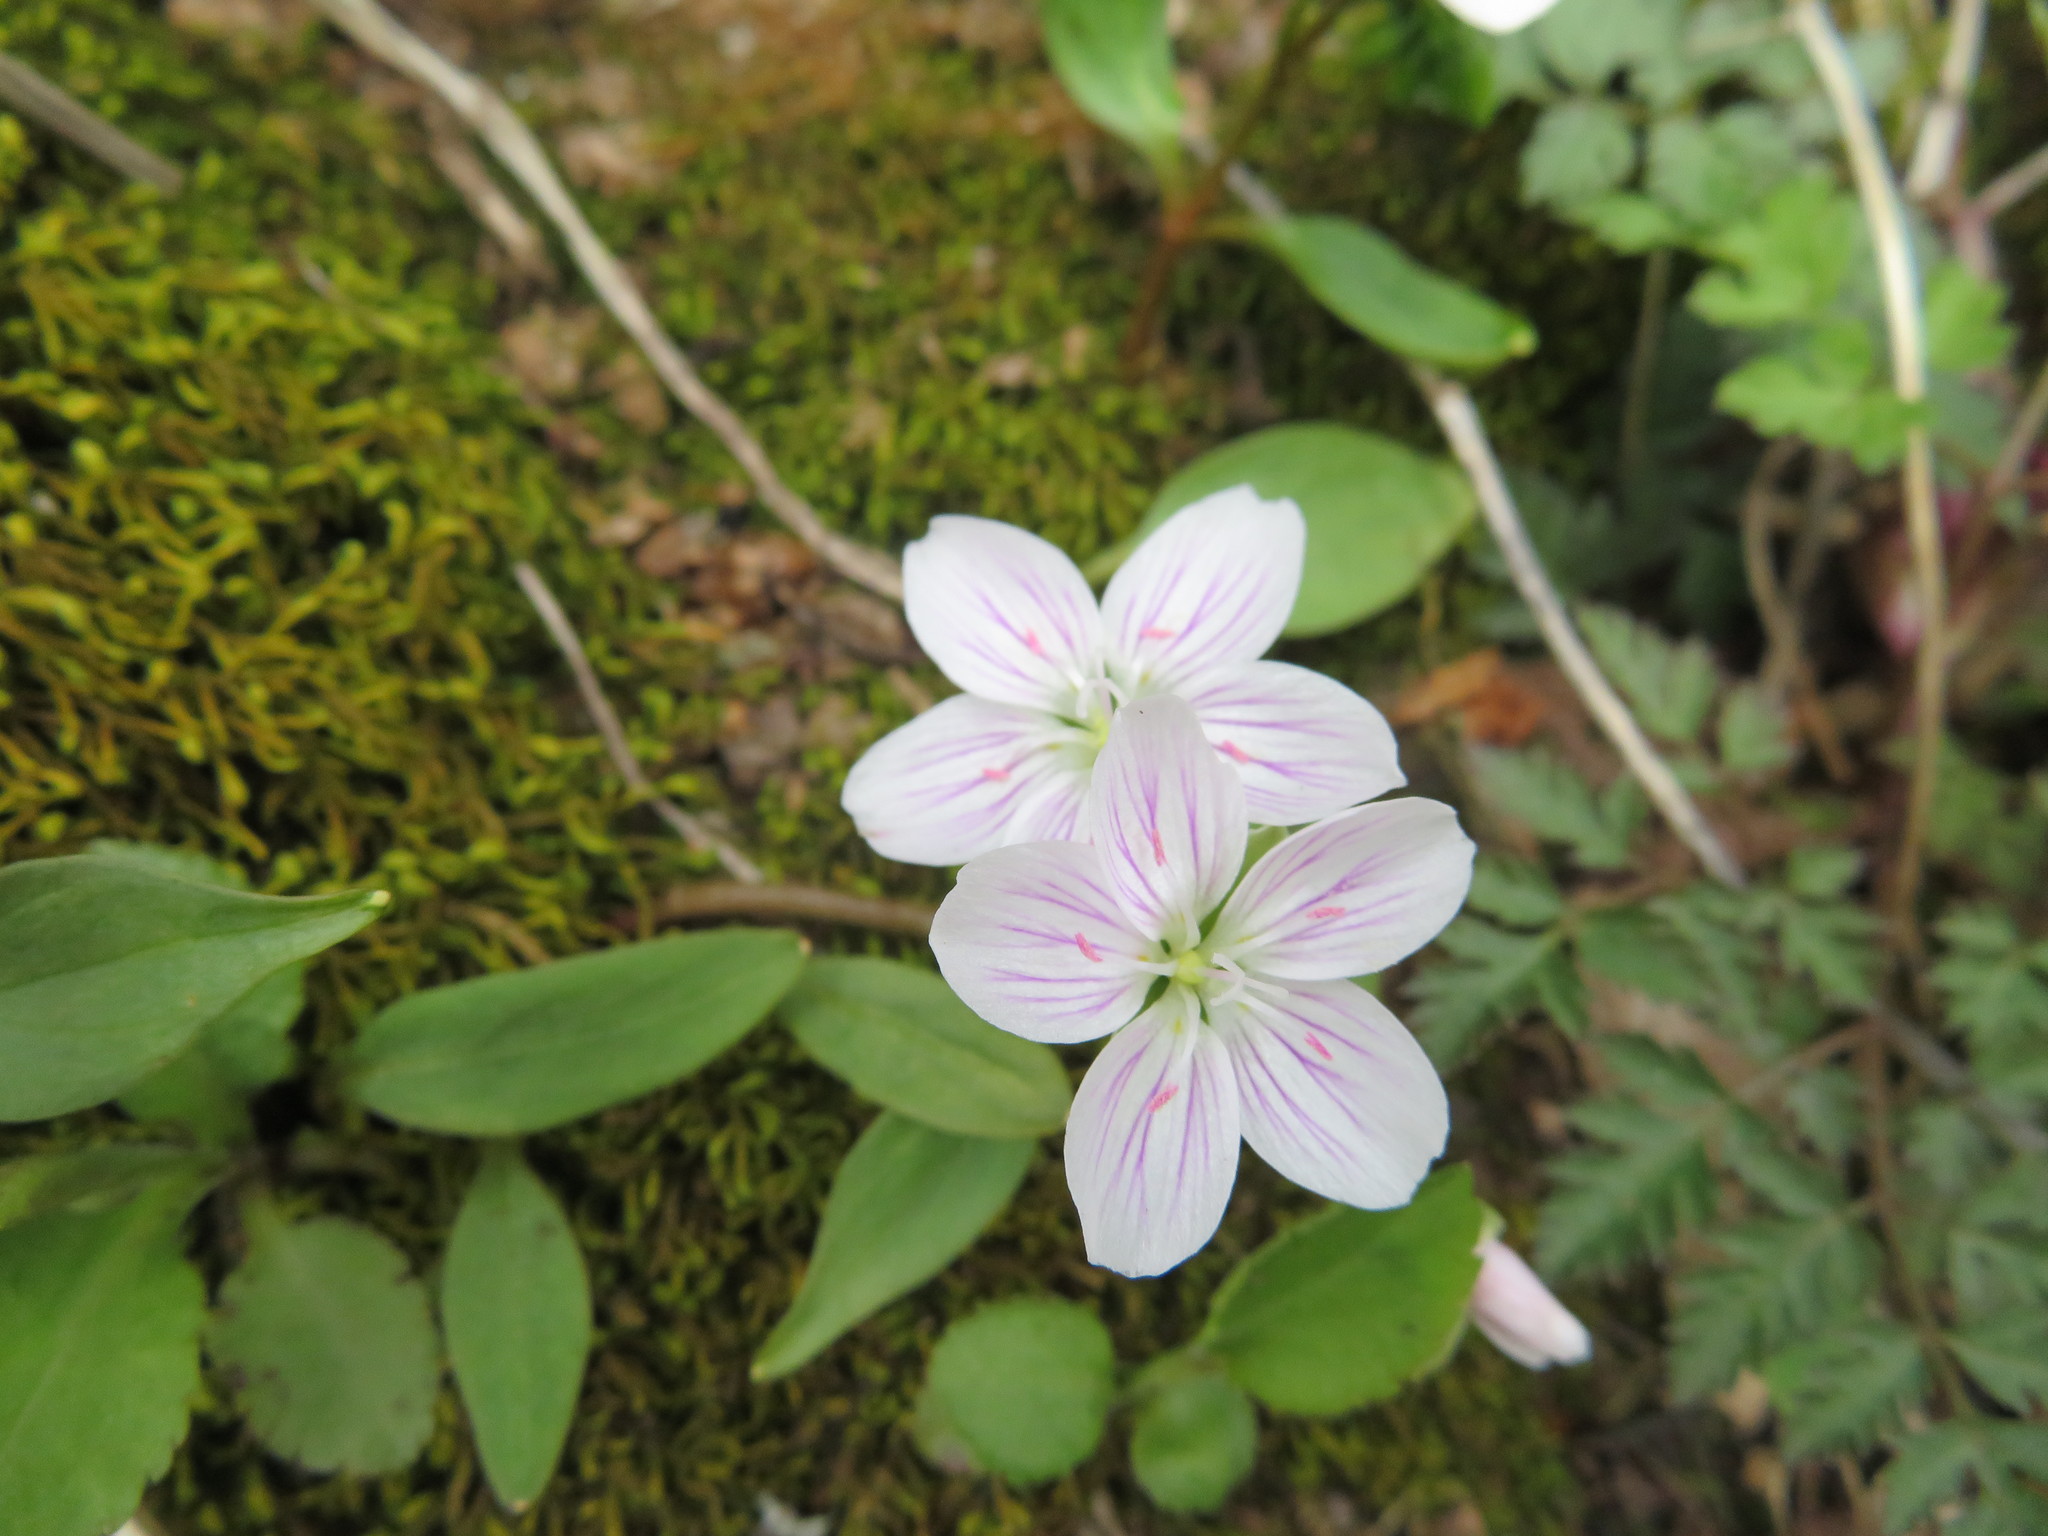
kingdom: Plantae
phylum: Tracheophyta
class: Magnoliopsida
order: Caryophyllales
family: Montiaceae
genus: Claytonia
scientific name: Claytonia caroliniana
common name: Carolina spring beauty
